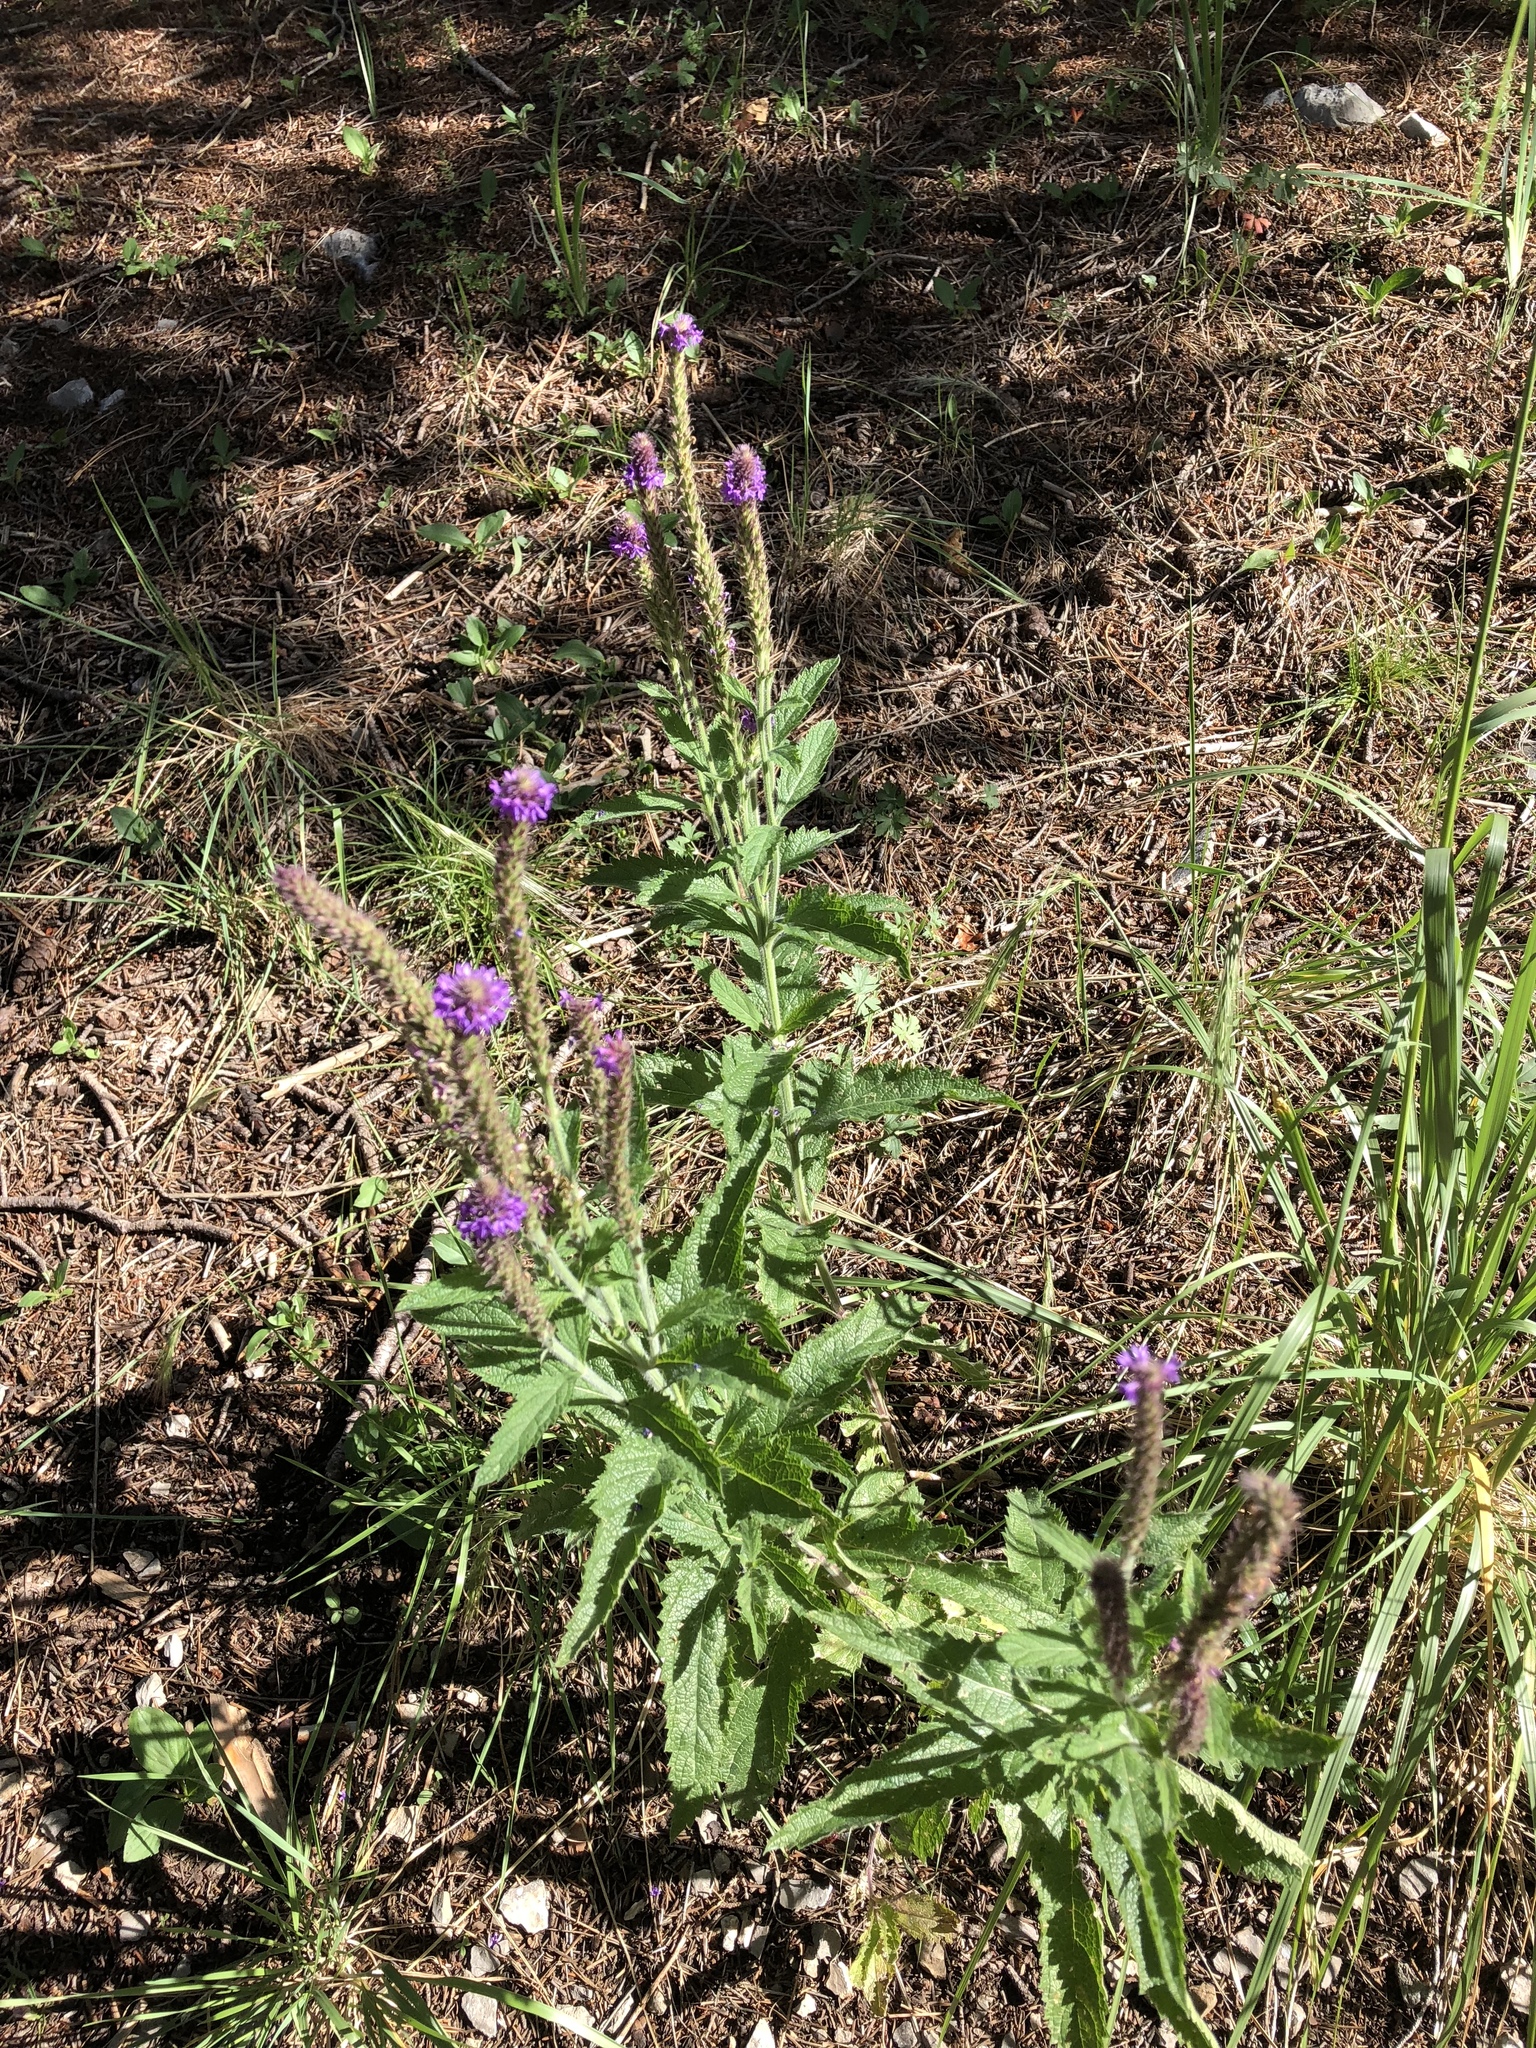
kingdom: Plantae
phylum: Tracheophyta
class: Magnoliopsida
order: Lamiales
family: Verbenaceae
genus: Verbena
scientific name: Verbena macdougalii
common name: New mexico vervain
